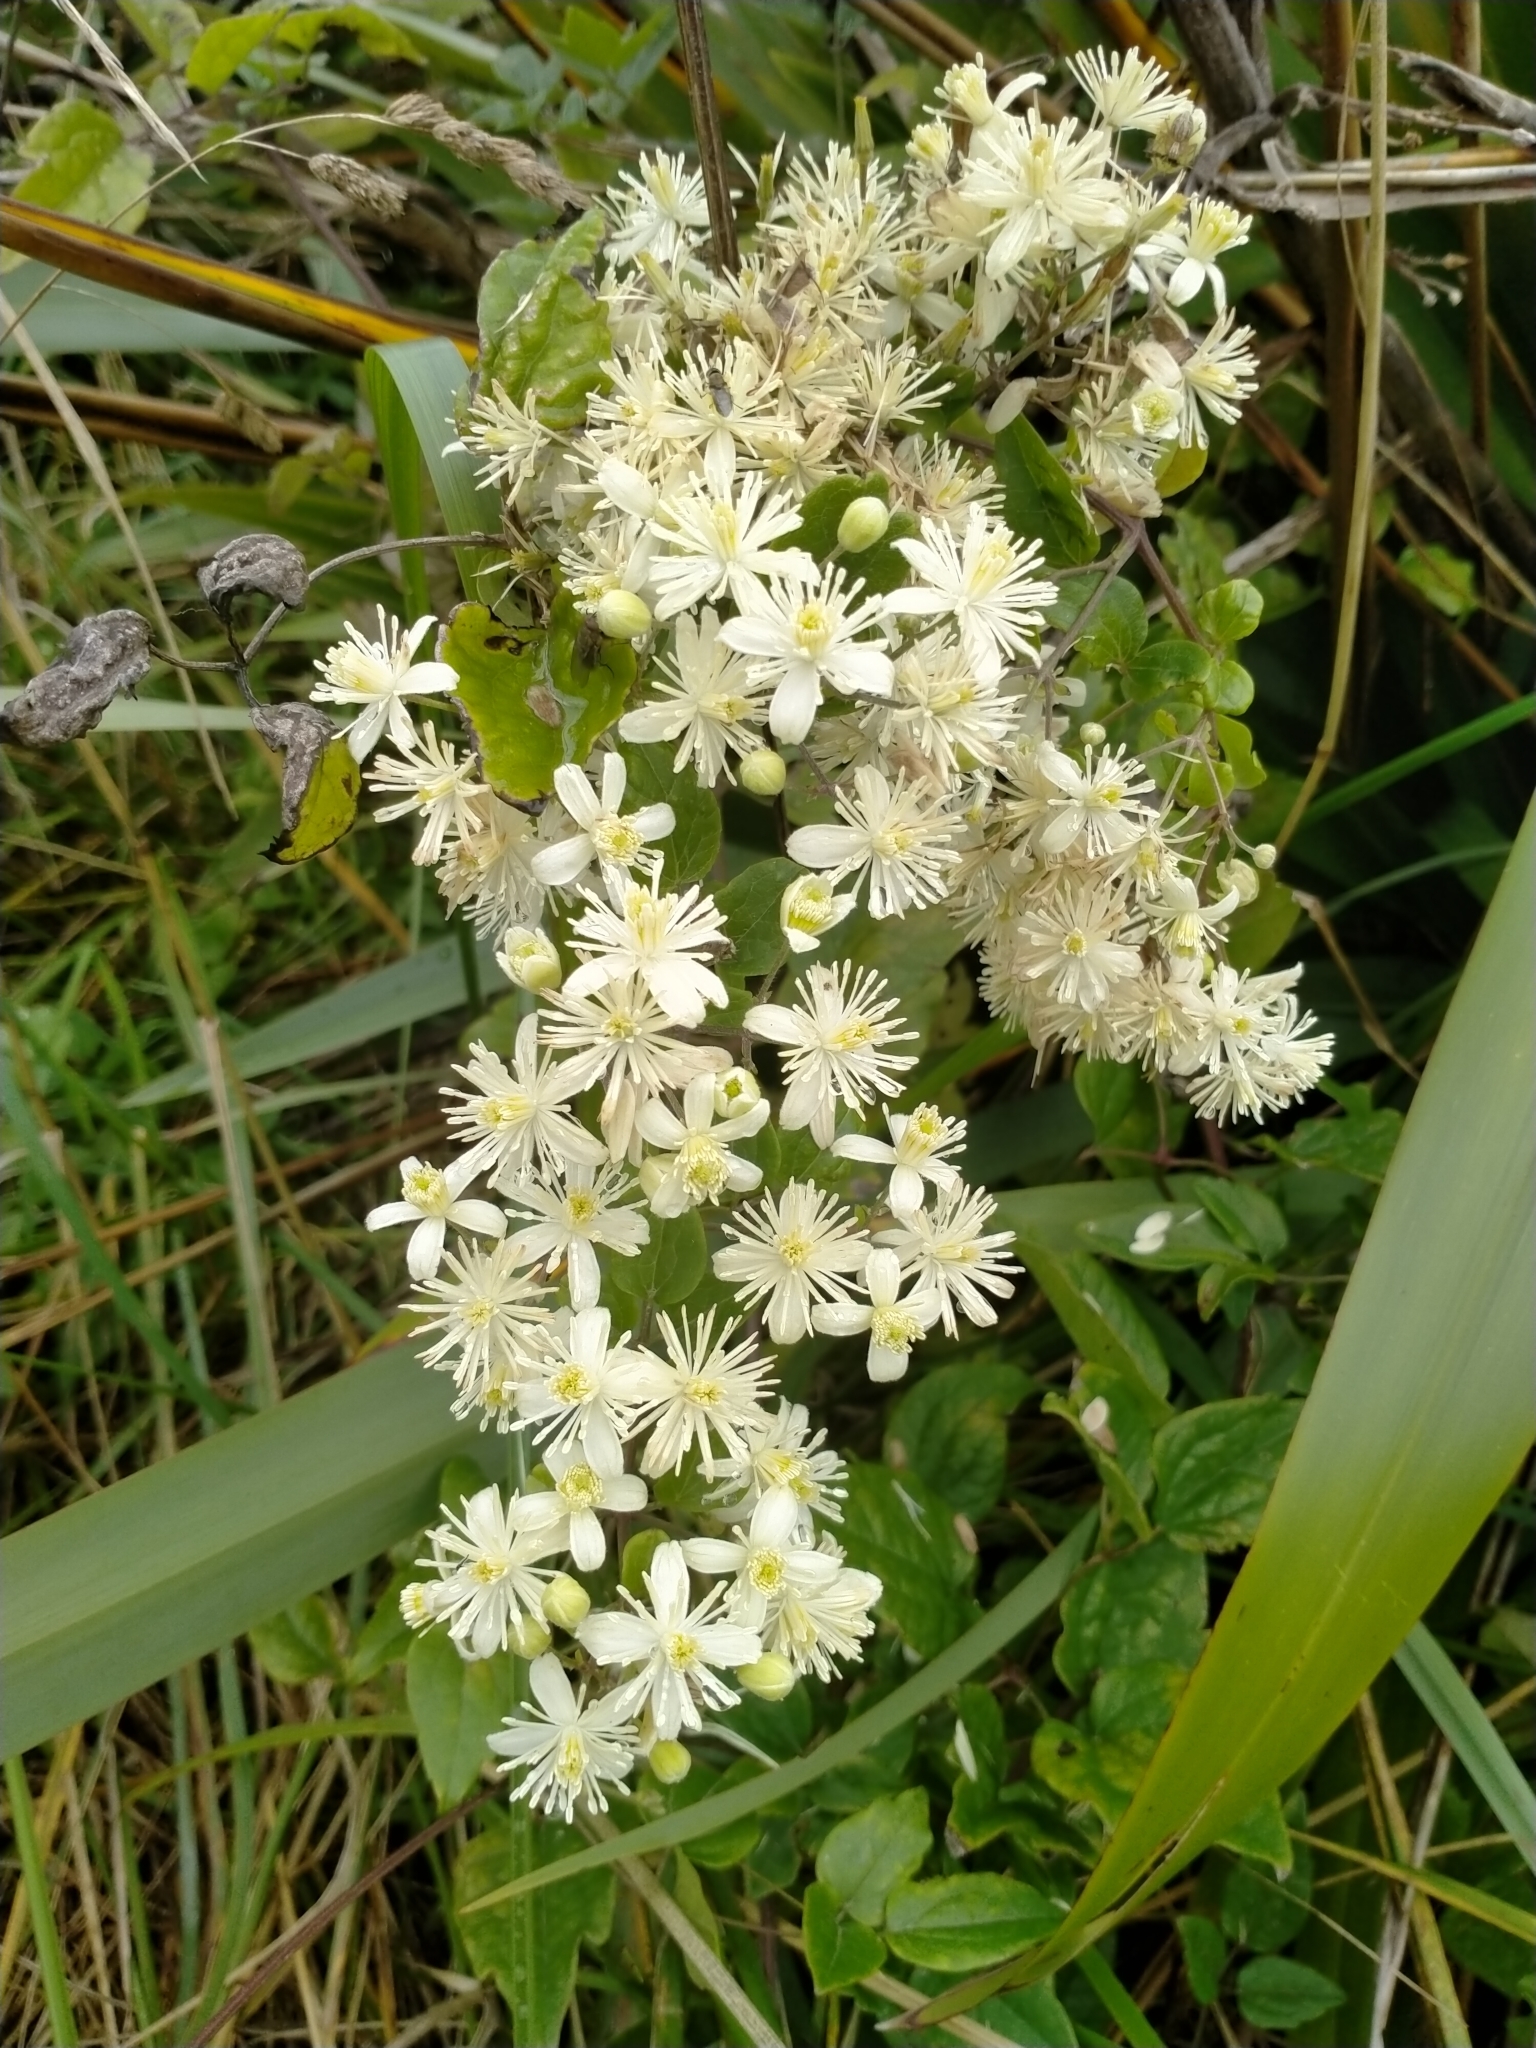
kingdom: Plantae
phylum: Tracheophyta
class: Magnoliopsida
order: Ranunculales
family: Ranunculaceae
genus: Clematis
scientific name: Clematis vitalba
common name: Evergreen clematis
